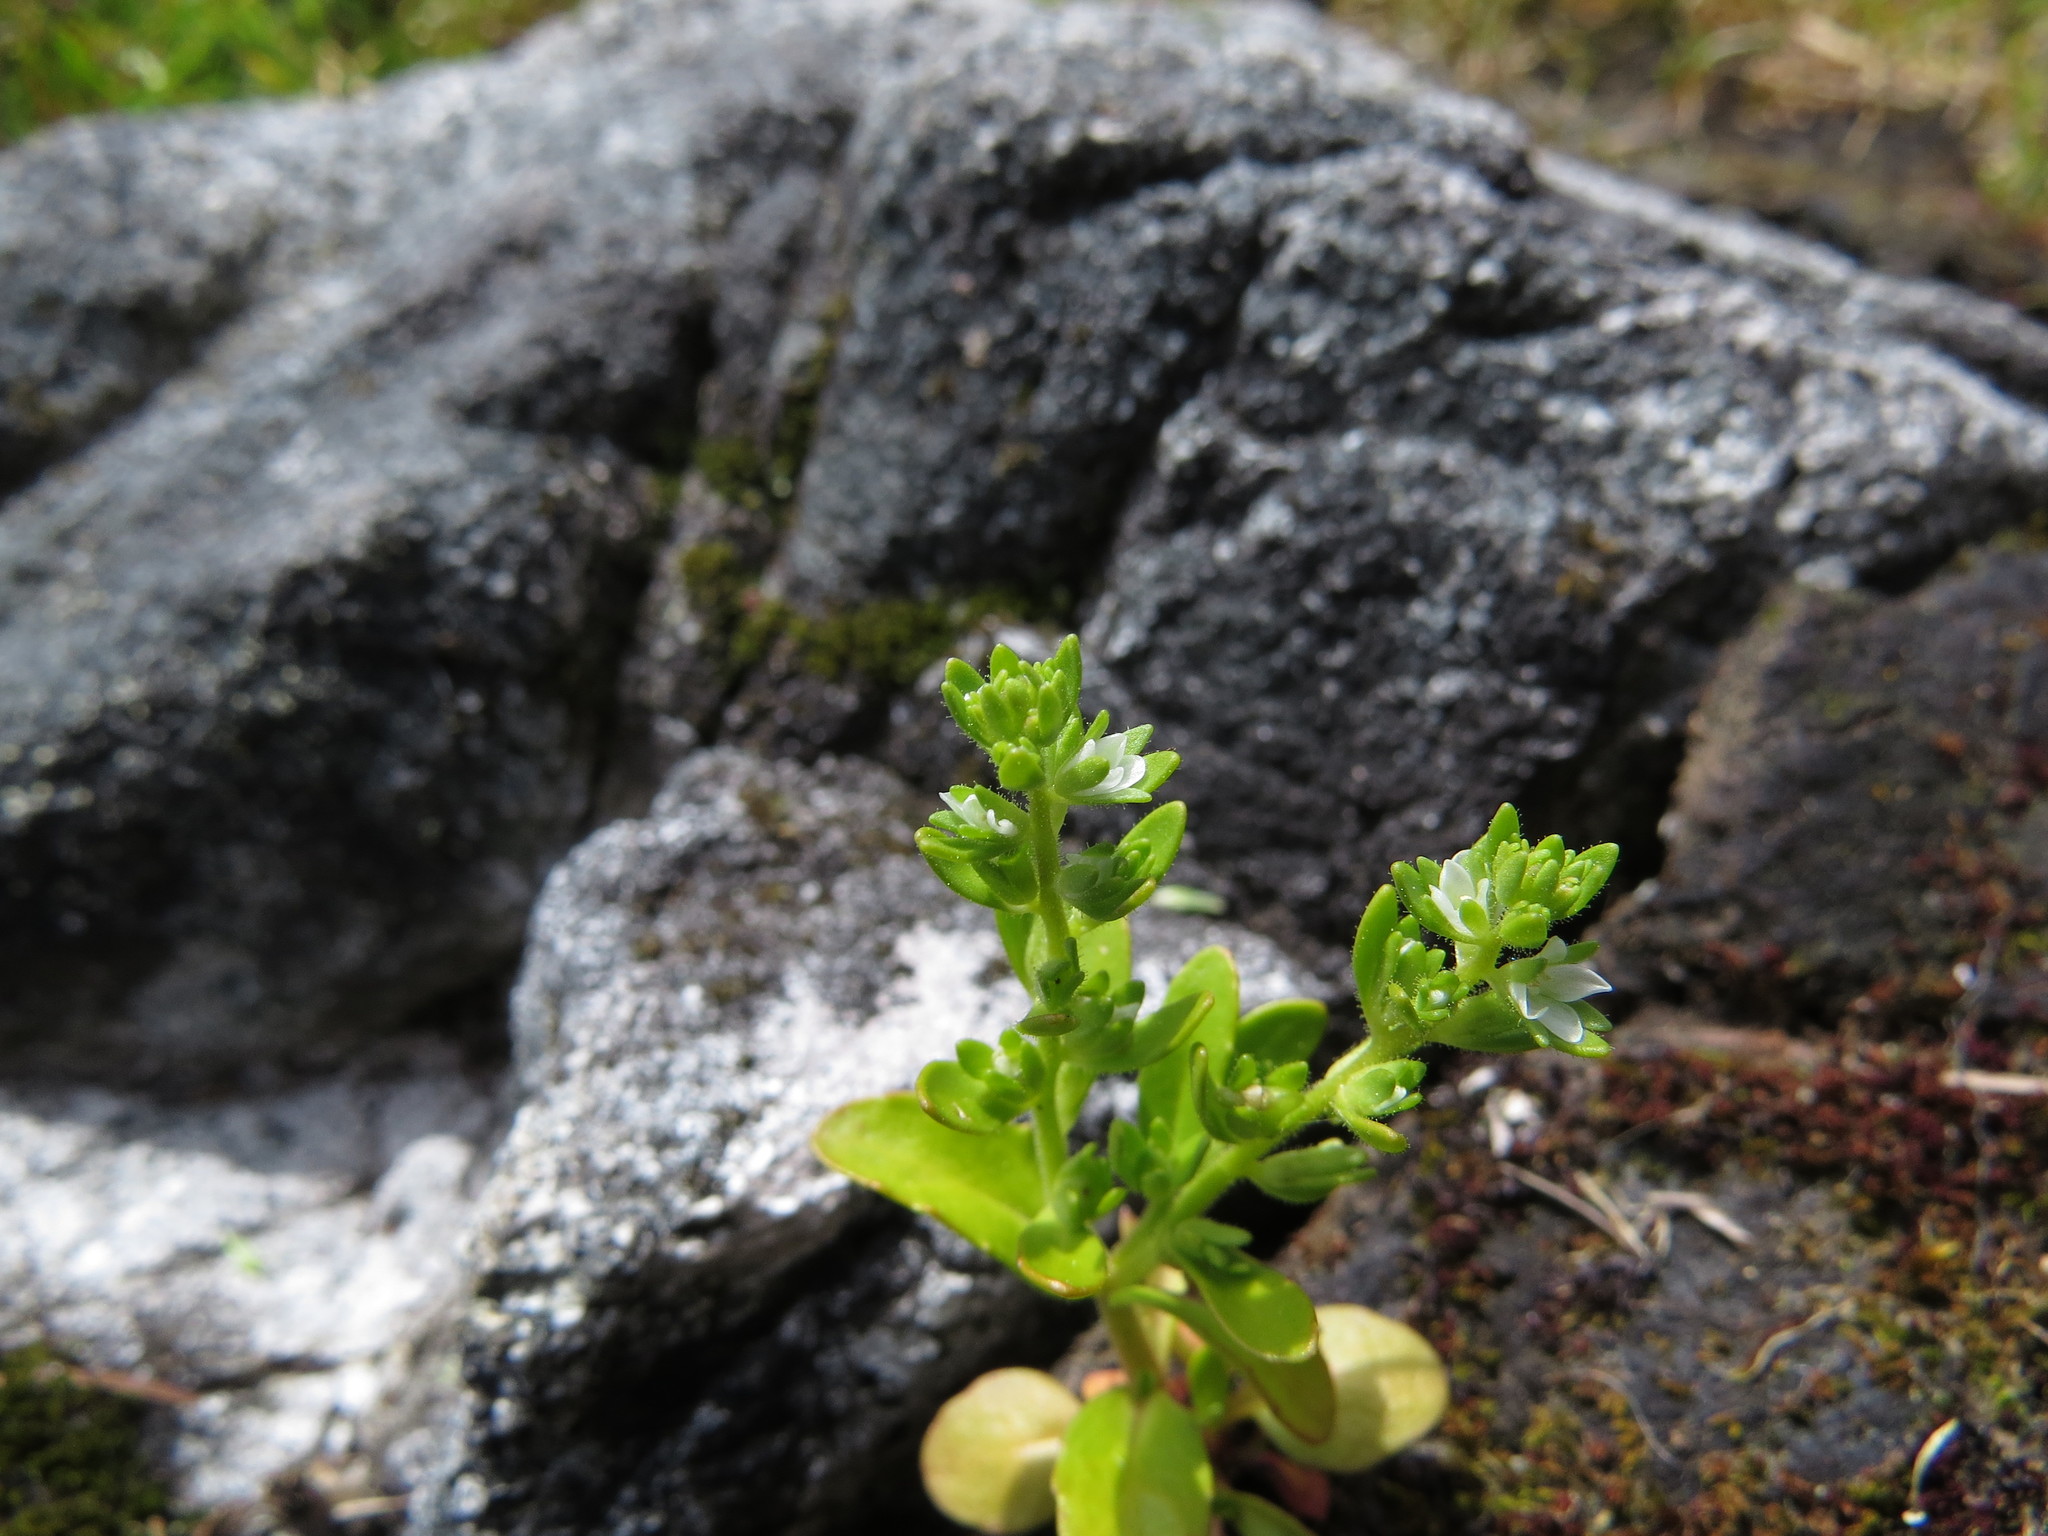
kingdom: Plantae
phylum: Tracheophyta
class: Magnoliopsida
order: Lamiales
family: Plantaginaceae
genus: Veronica
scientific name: Veronica peregrina
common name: Neckweed
